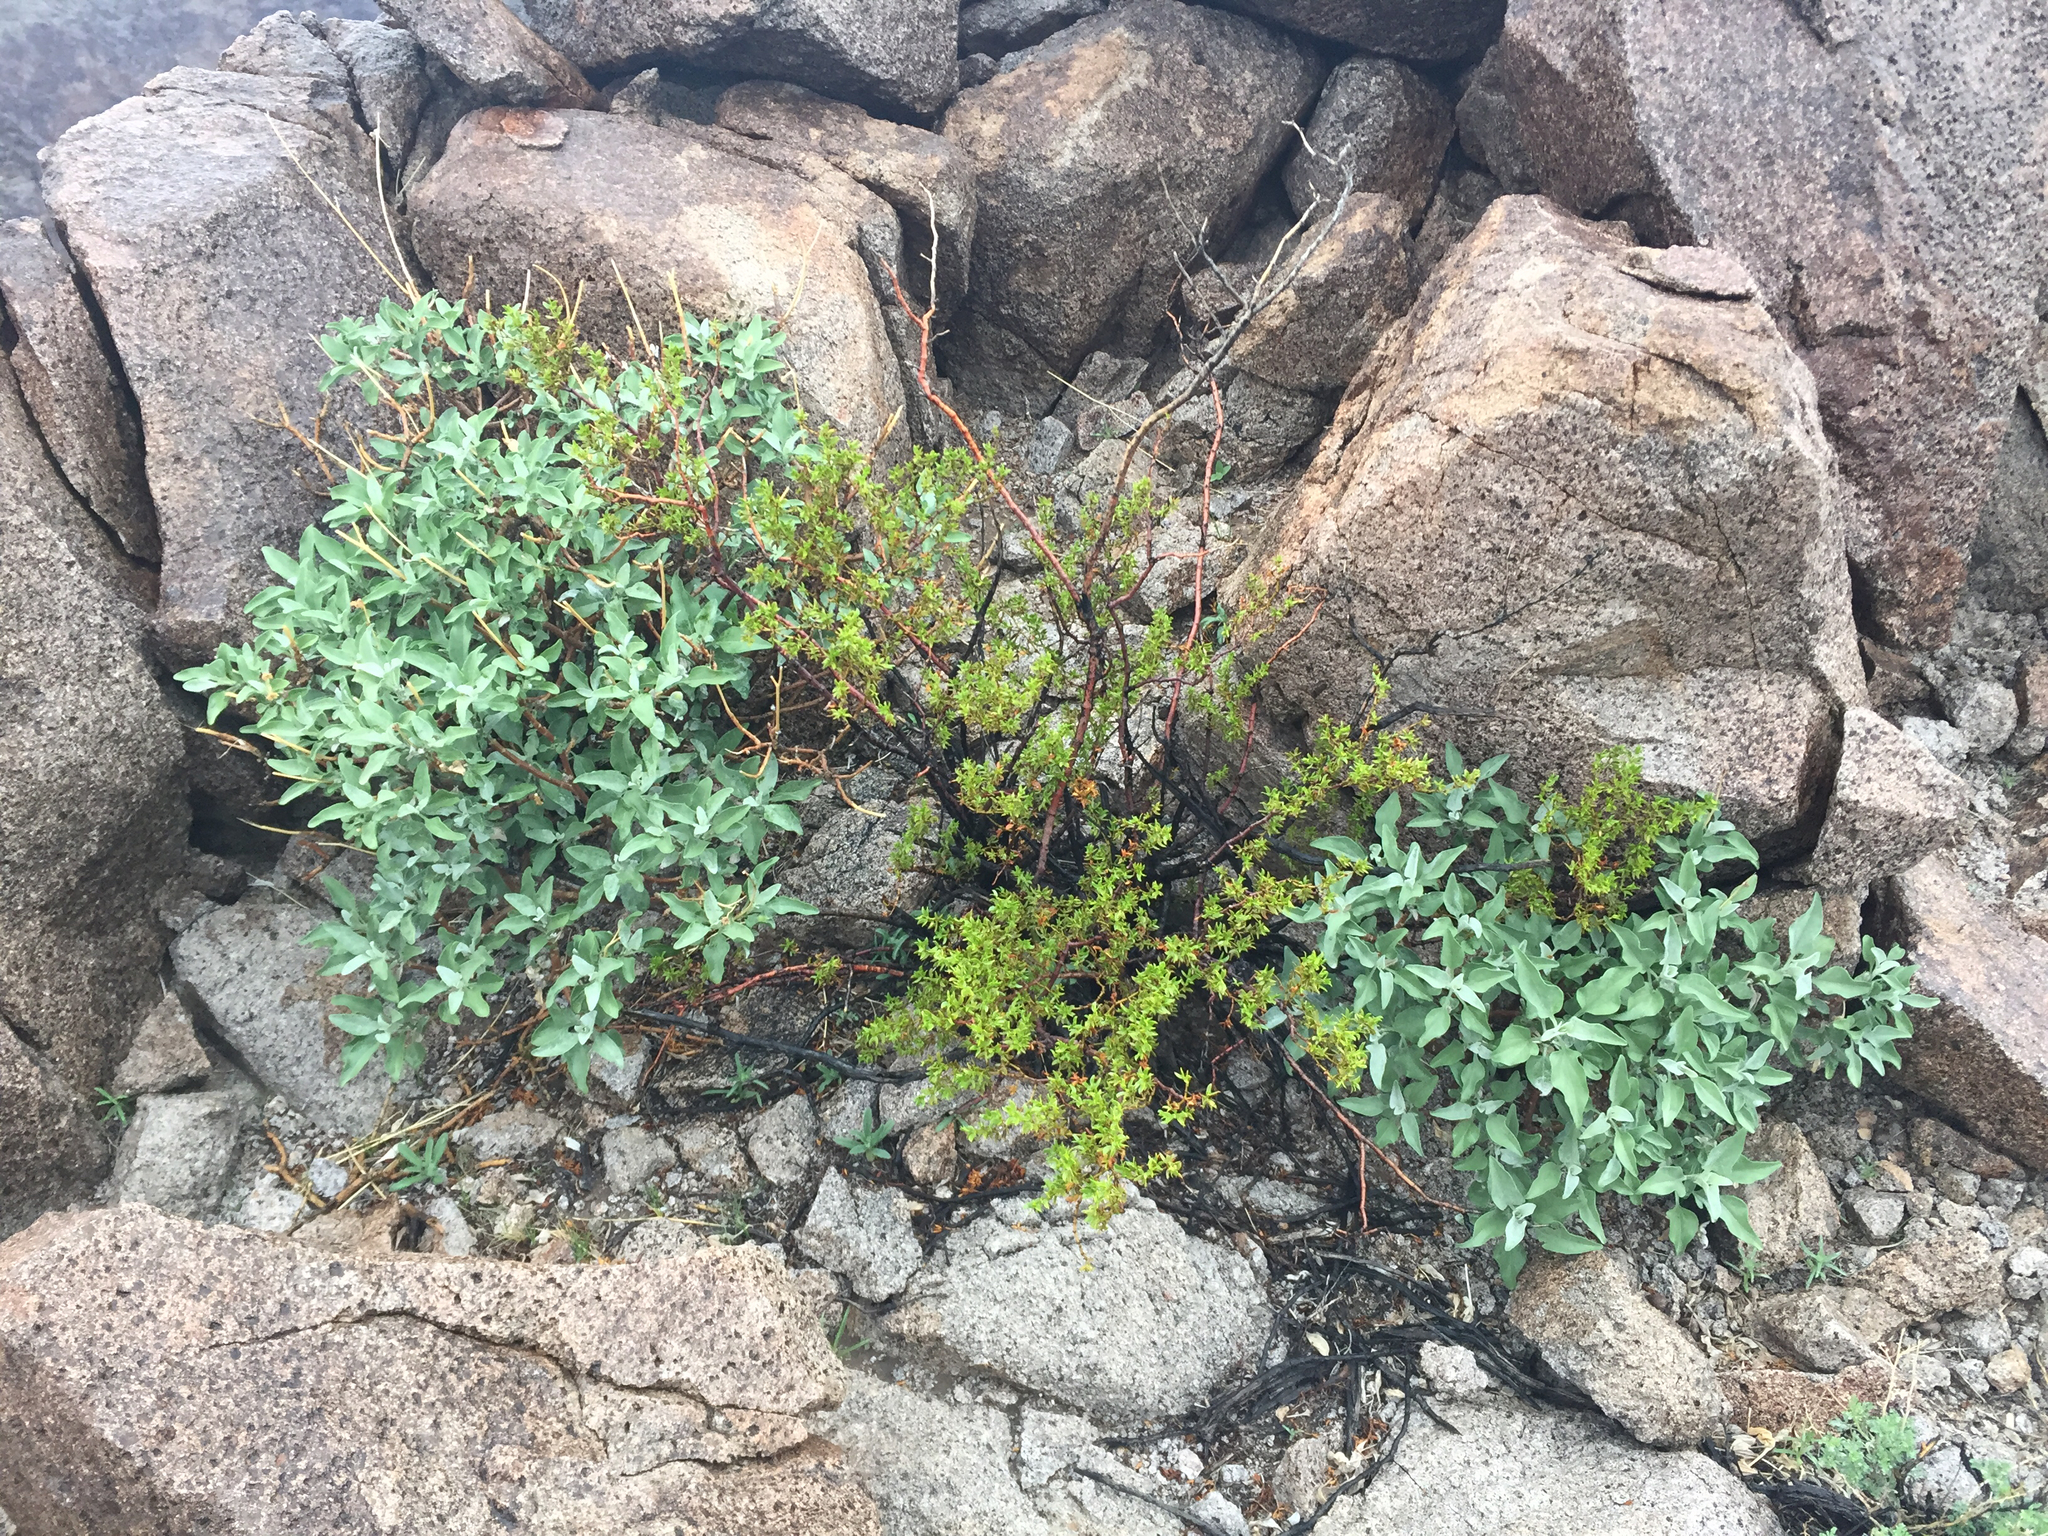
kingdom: Plantae
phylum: Tracheophyta
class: Magnoliopsida
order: Zygophyllales
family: Zygophyllaceae
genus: Larrea
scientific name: Larrea tridentata
